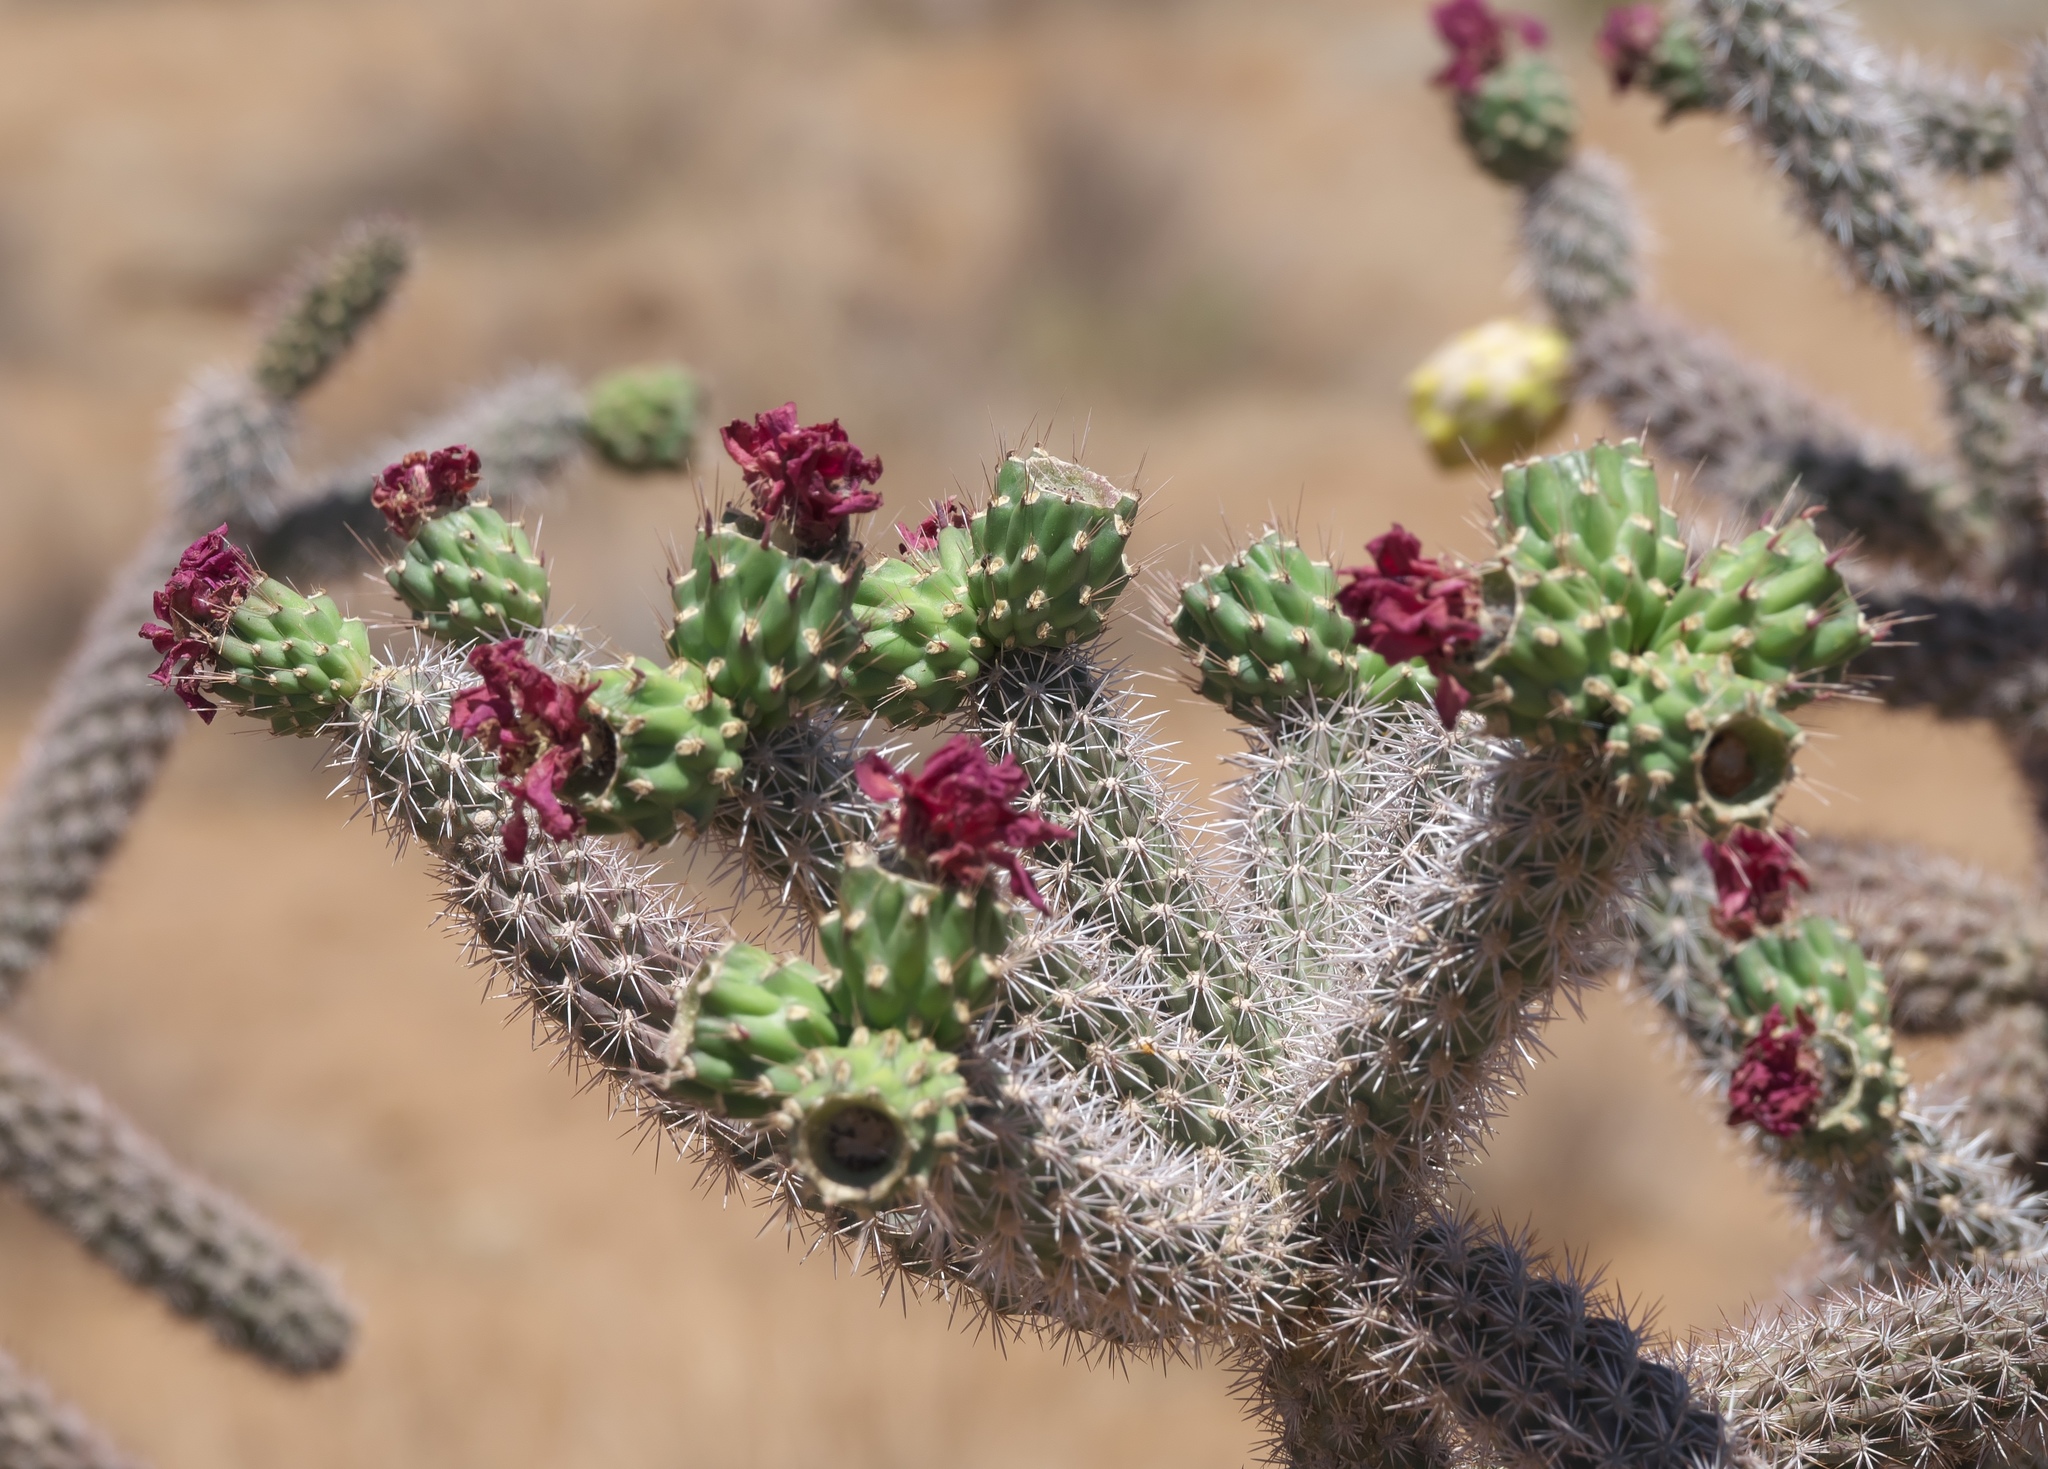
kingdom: Plantae
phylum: Tracheophyta
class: Magnoliopsida
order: Caryophyllales
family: Cactaceae
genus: Cylindropuntia
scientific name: Cylindropuntia imbricata
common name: Candelabrum cactus
